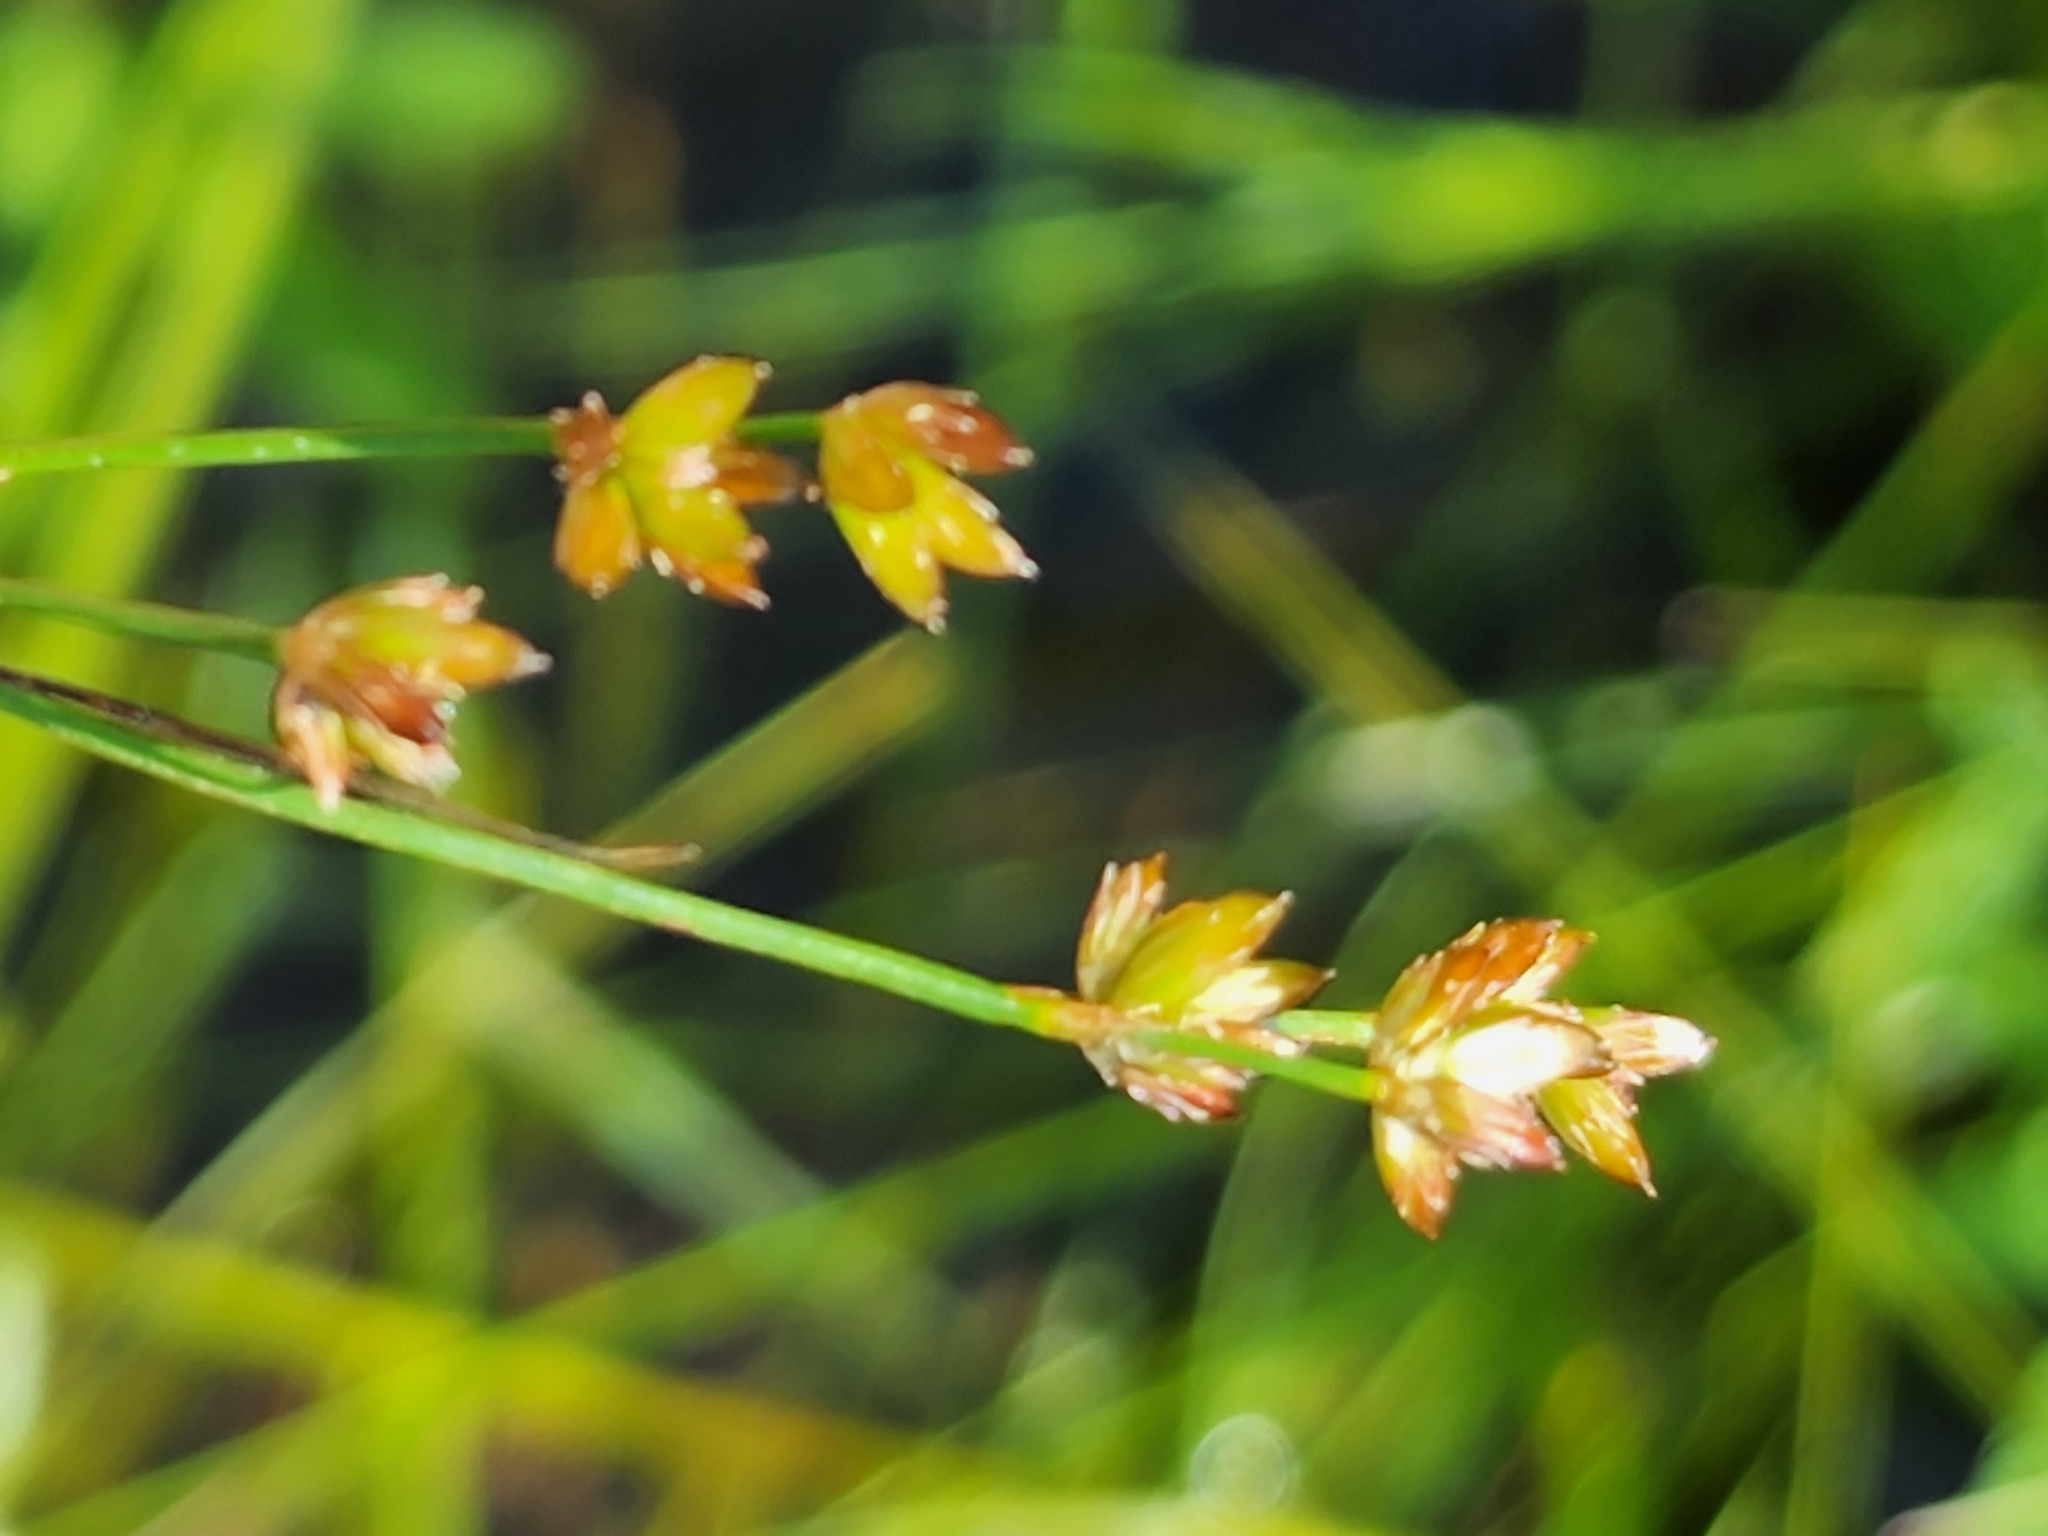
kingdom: Plantae
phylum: Tracheophyta
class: Liliopsida
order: Poales
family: Juncaceae
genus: Juncus
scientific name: Juncus tweedyi
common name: Narrow-panicled rush
